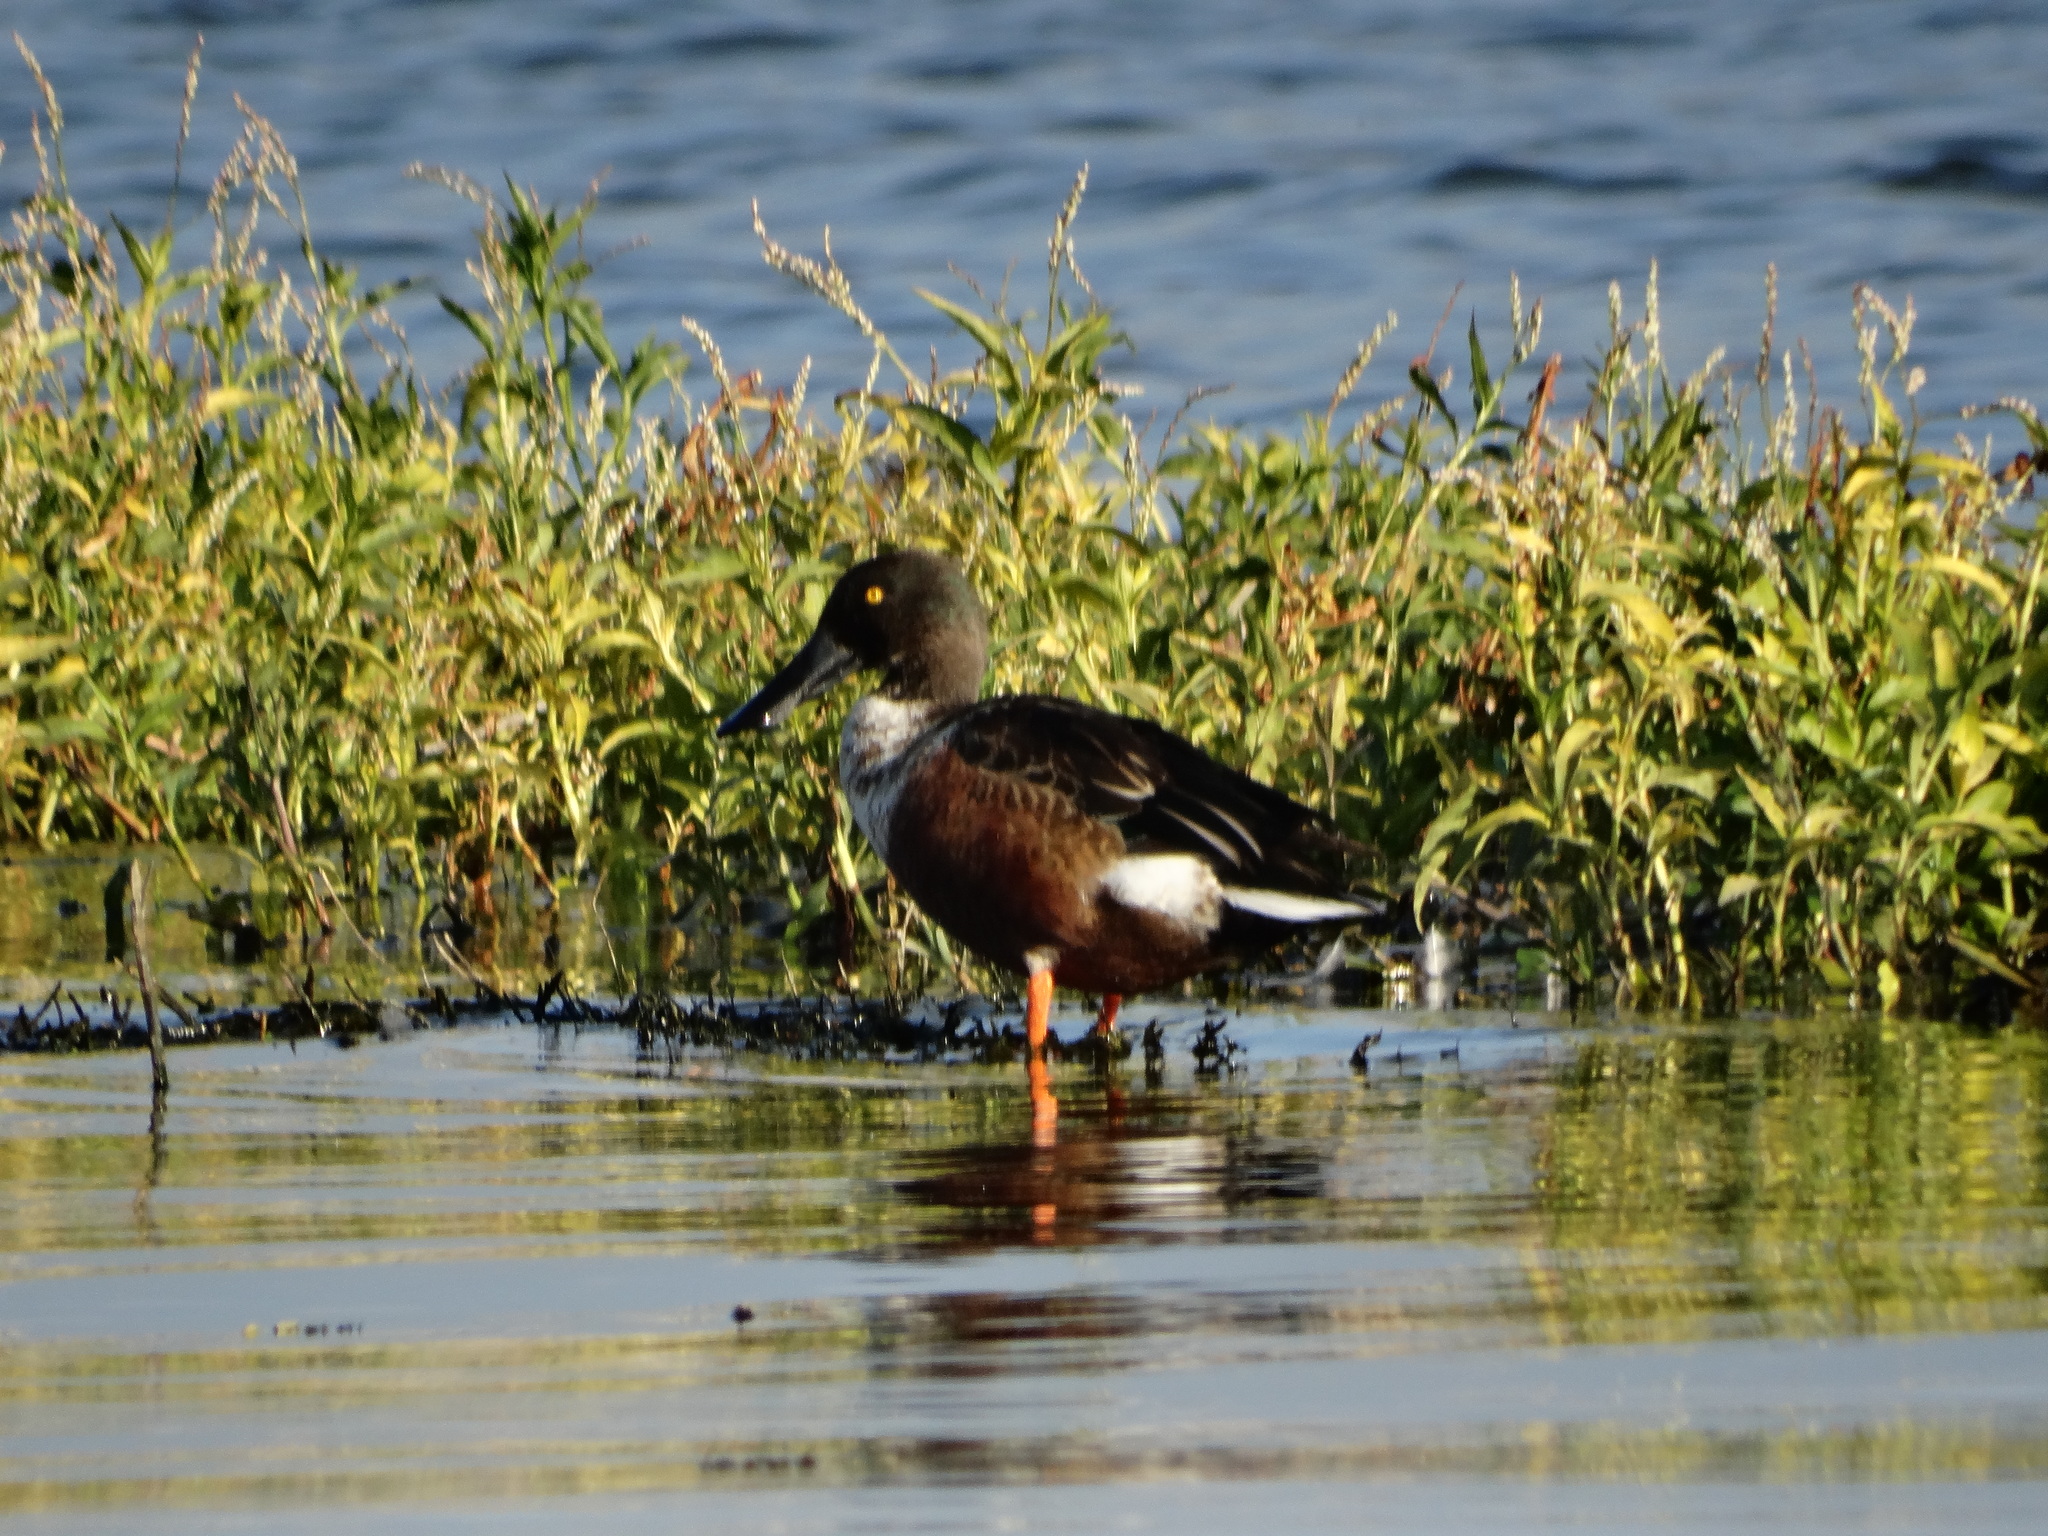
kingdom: Animalia
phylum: Chordata
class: Aves
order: Anseriformes
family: Anatidae
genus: Spatula
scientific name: Spatula clypeata
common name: Northern shoveler
